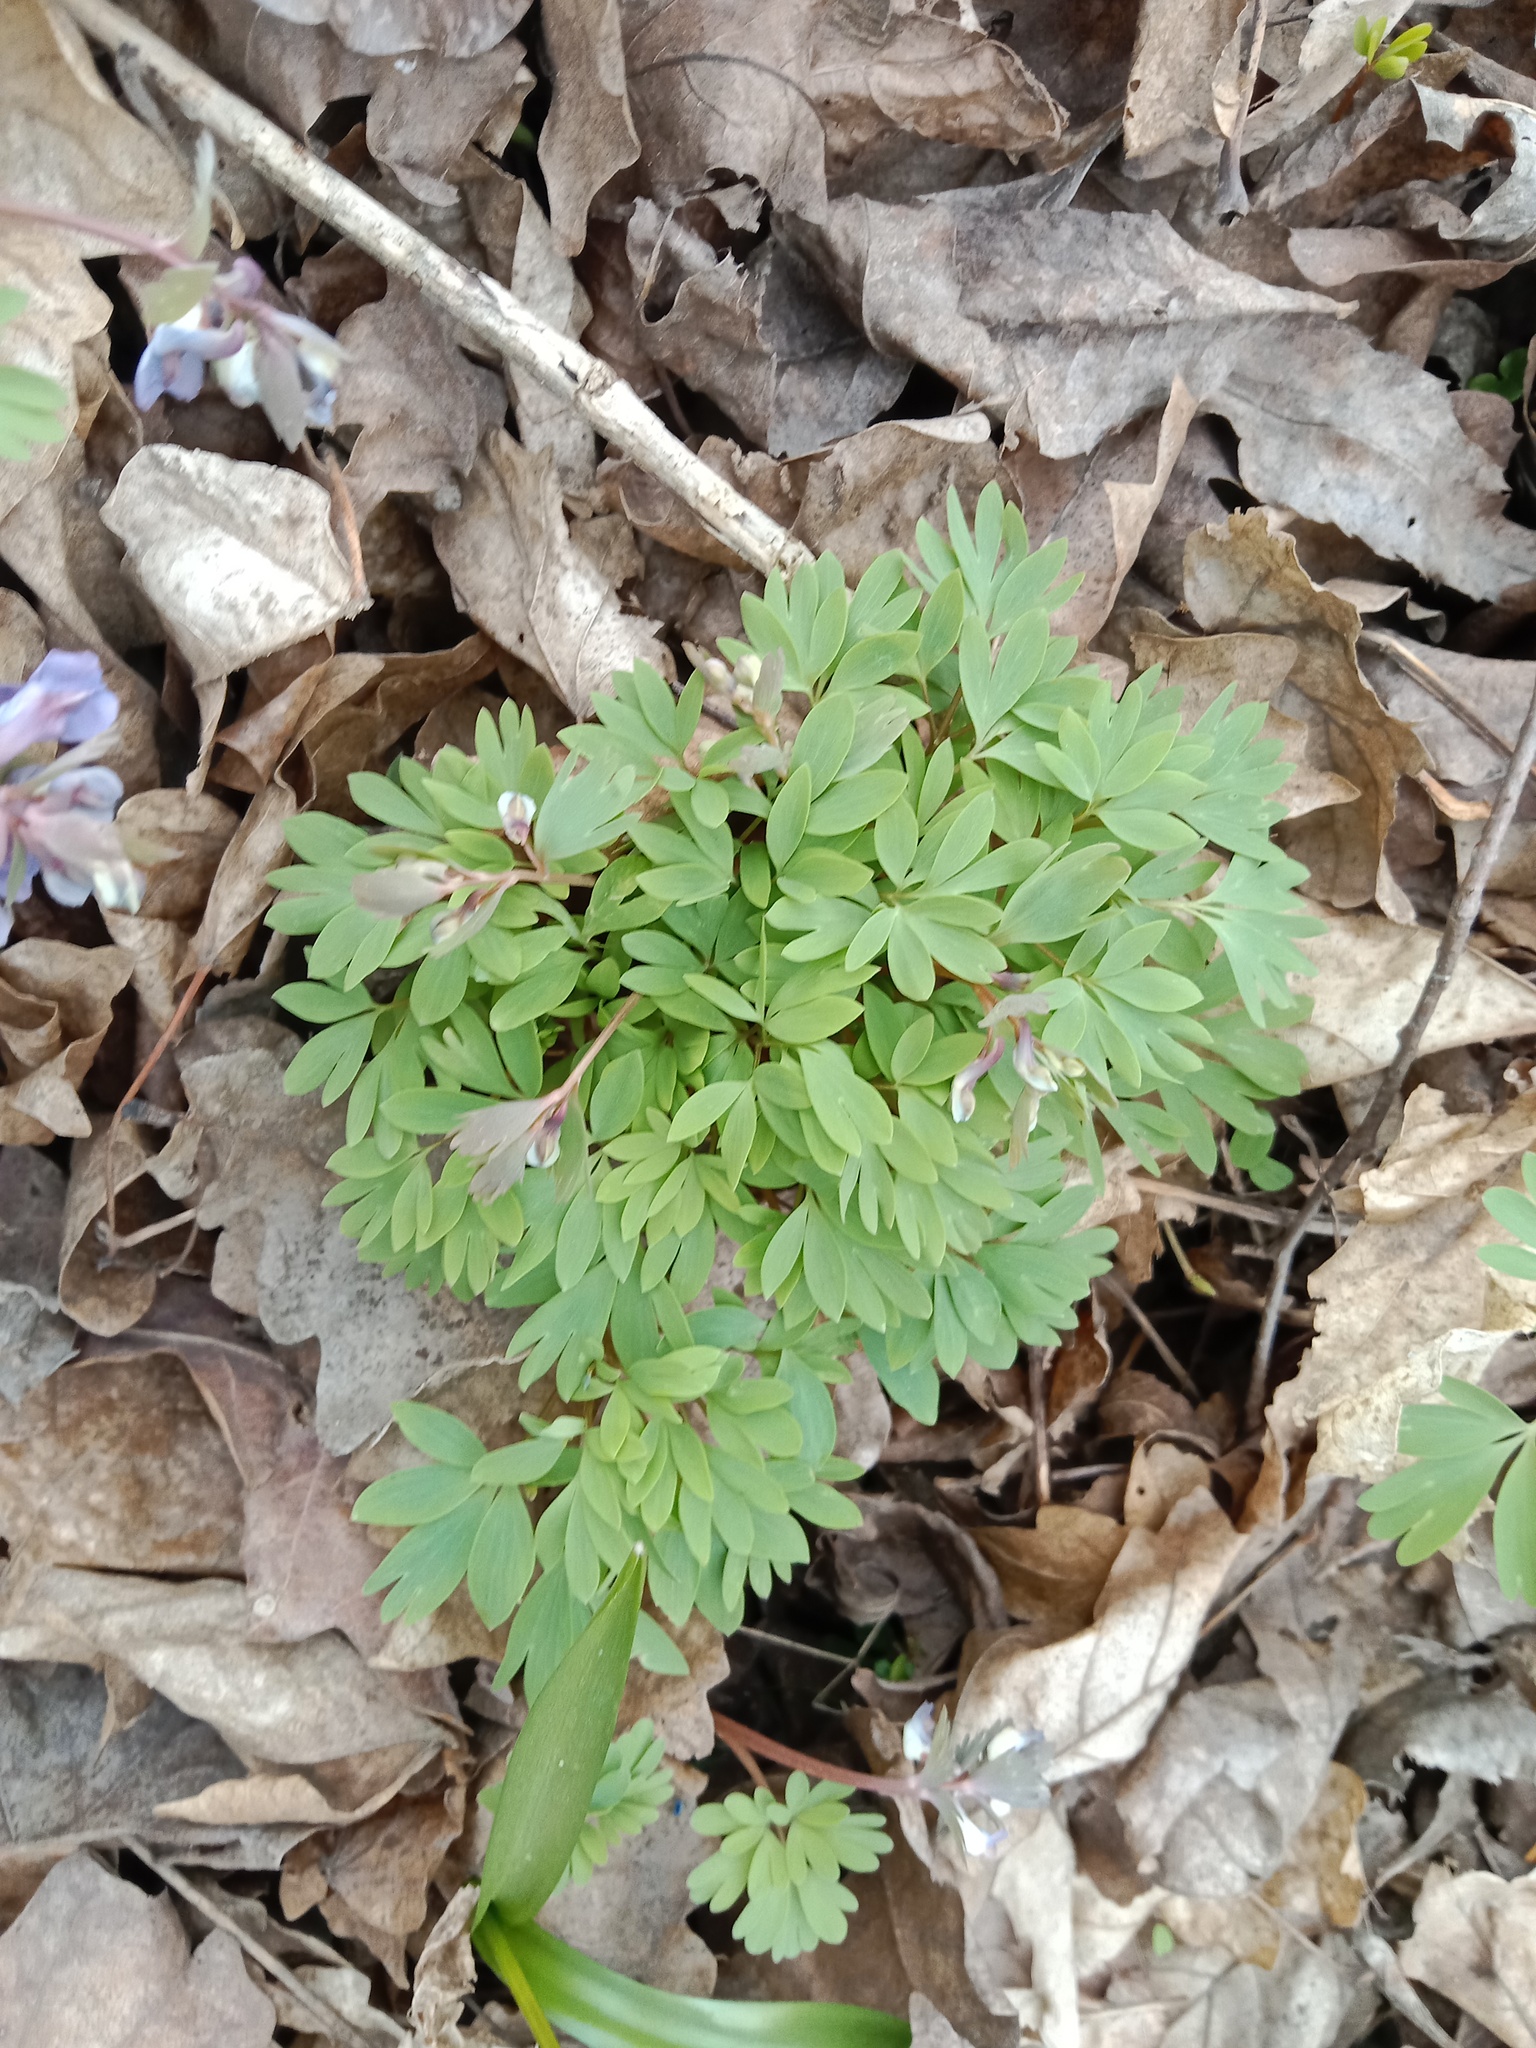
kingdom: Plantae
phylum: Tracheophyta
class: Magnoliopsida
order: Ranunculales
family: Papaveraceae
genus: Corydalis
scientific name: Corydalis solida
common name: Bird-in-a-bush
